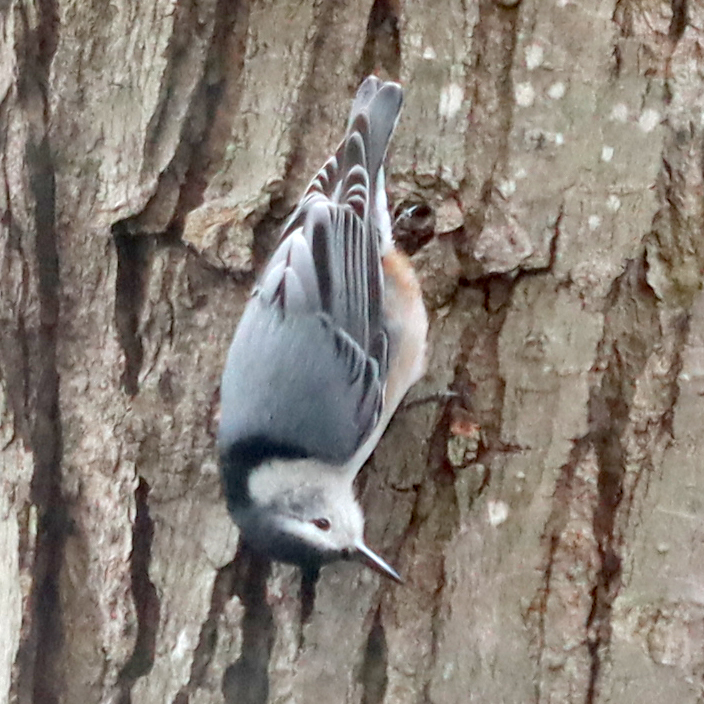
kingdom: Animalia
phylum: Chordata
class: Aves
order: Passeriformes
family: Sittidae
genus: Sitta
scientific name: Sitta carolinensis
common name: White-breasted nuthatch
